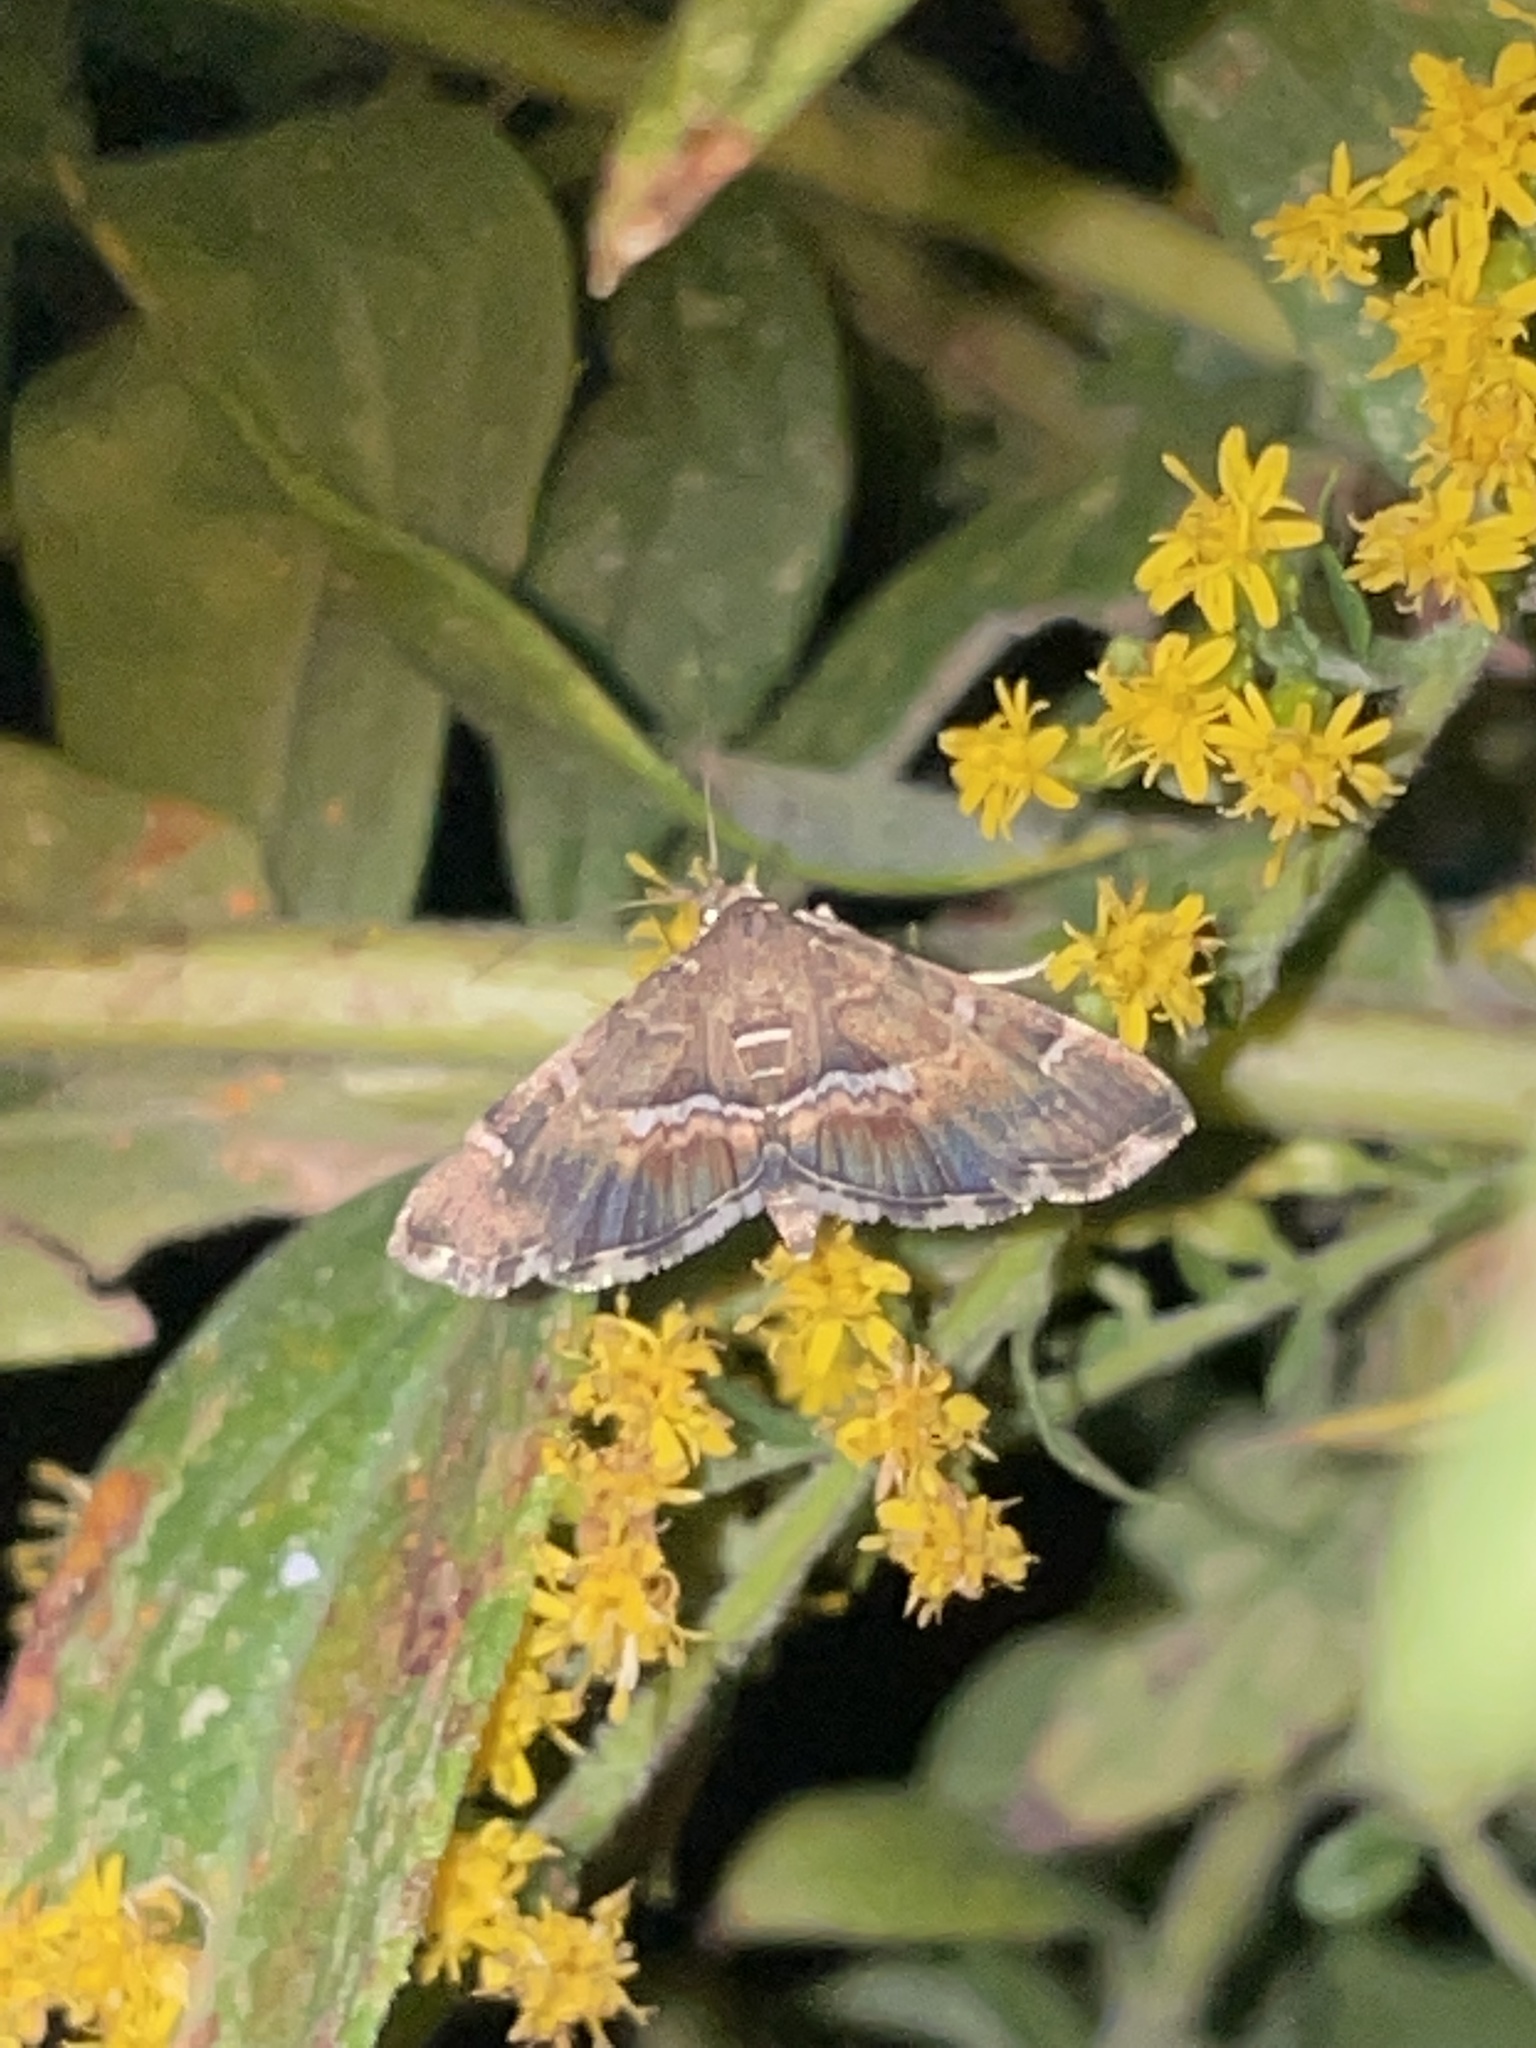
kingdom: Animalia
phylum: Arthropoda
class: Insecta
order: Lepidoptera
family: Crambidae
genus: Hymenia
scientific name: Hymenia perspectalis
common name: Spotted beet webworm
